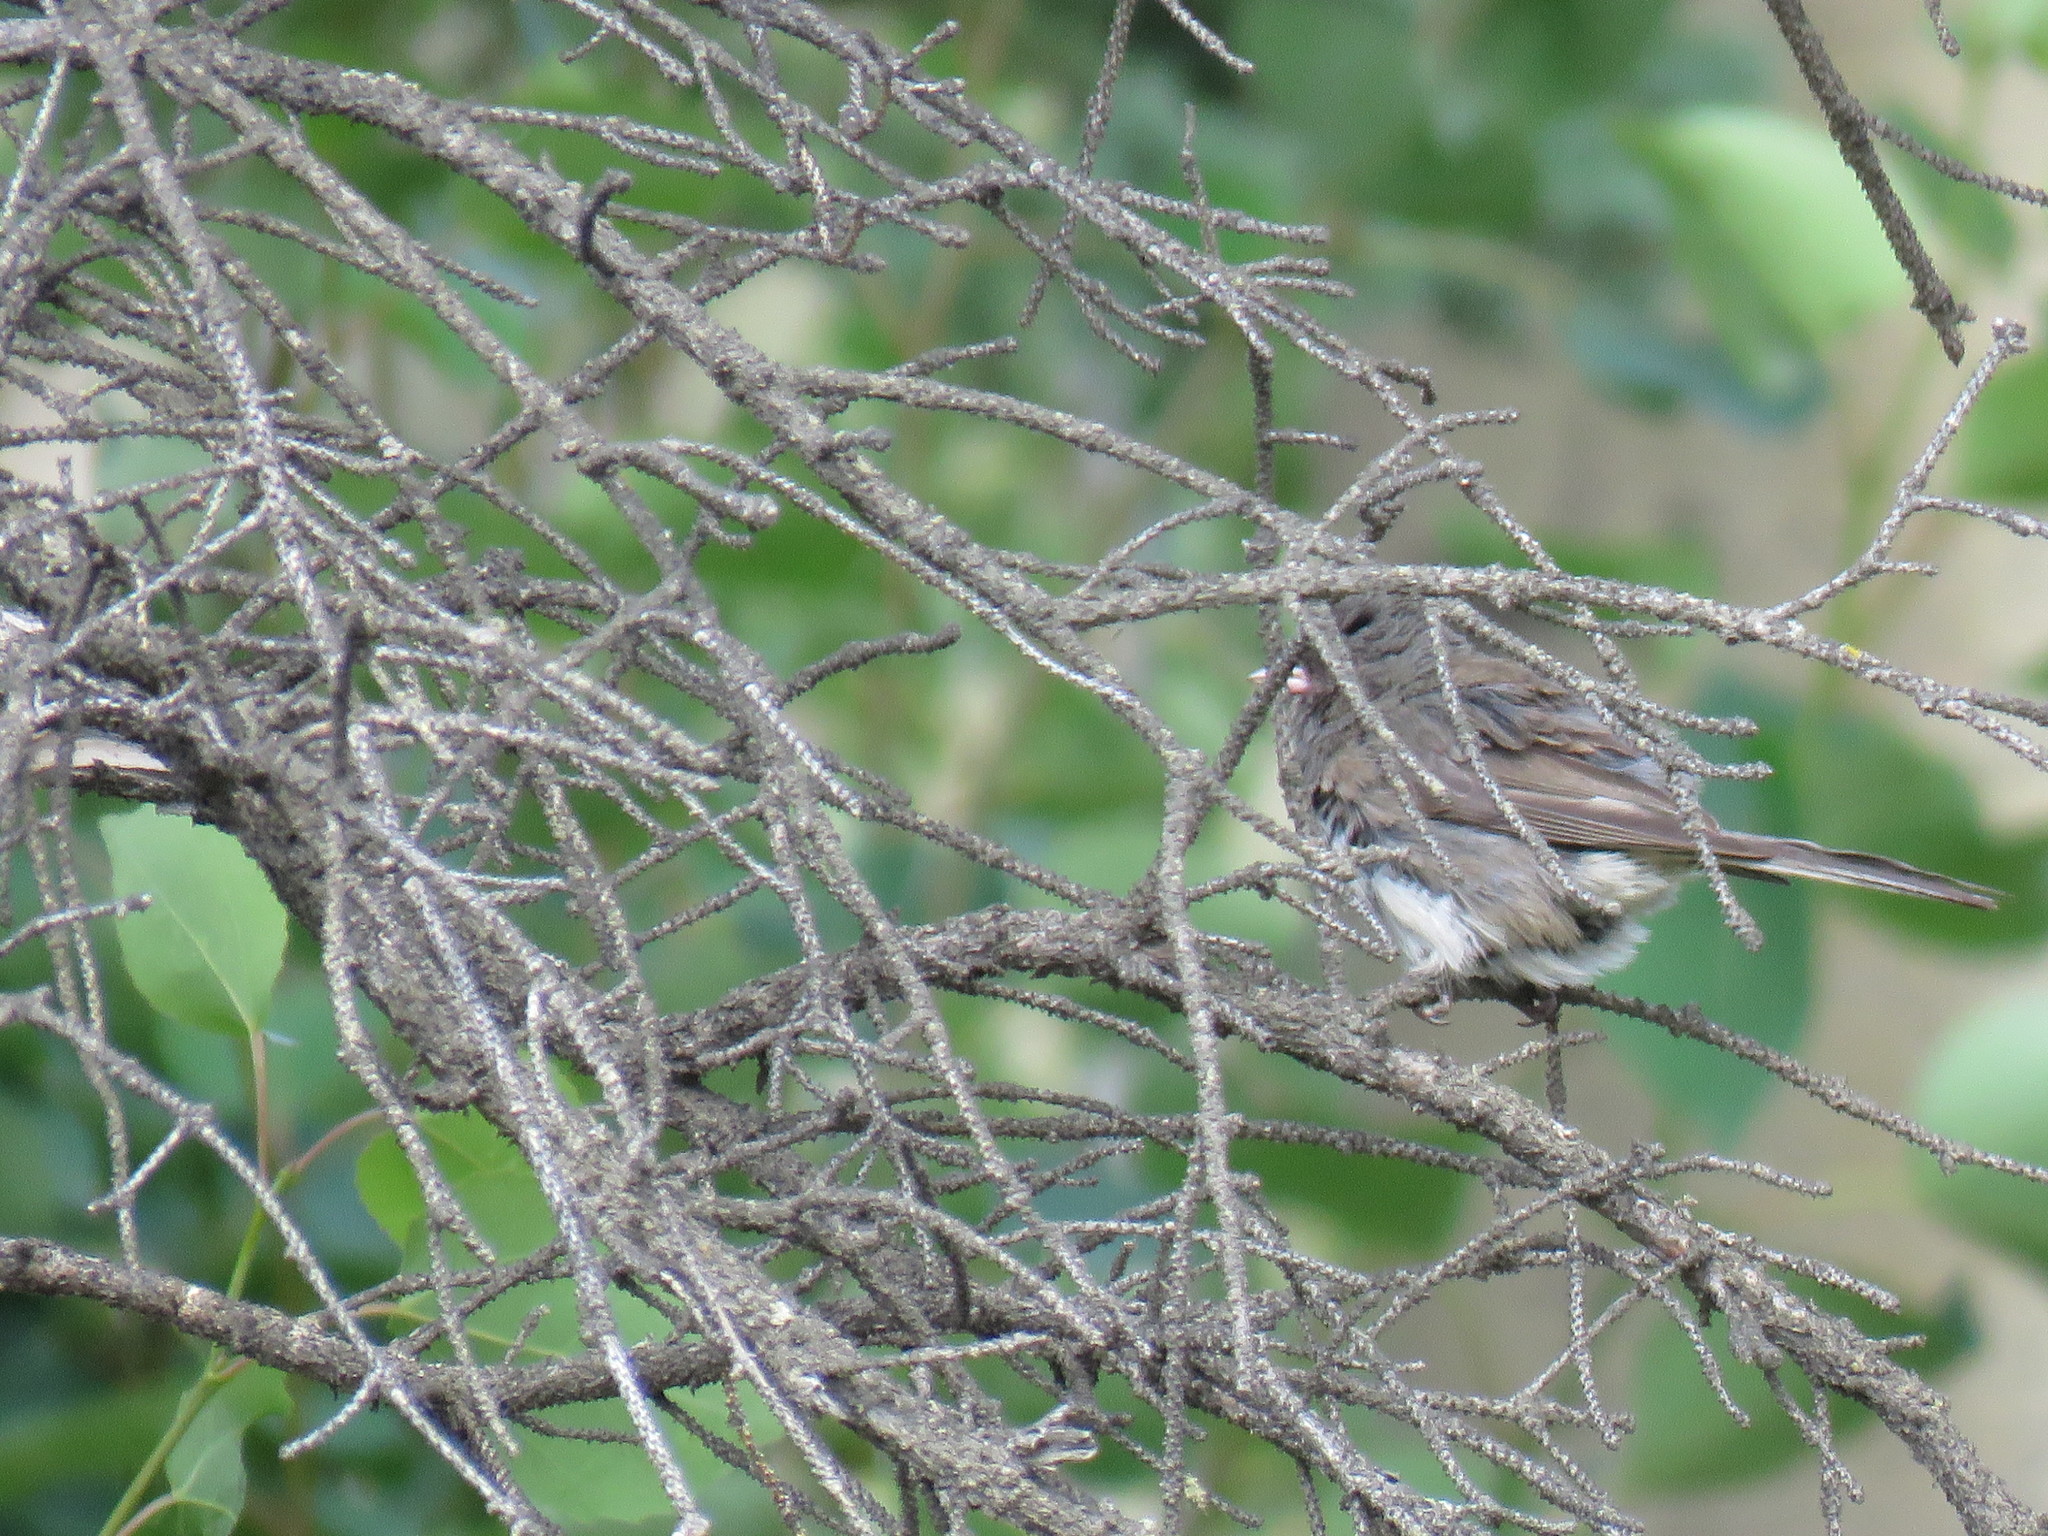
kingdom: Animalia
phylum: Chordata
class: Aves
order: Passeriformes
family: Passerellidae
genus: Junco
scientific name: Junco hyemalis
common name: Dark-eyed junco
